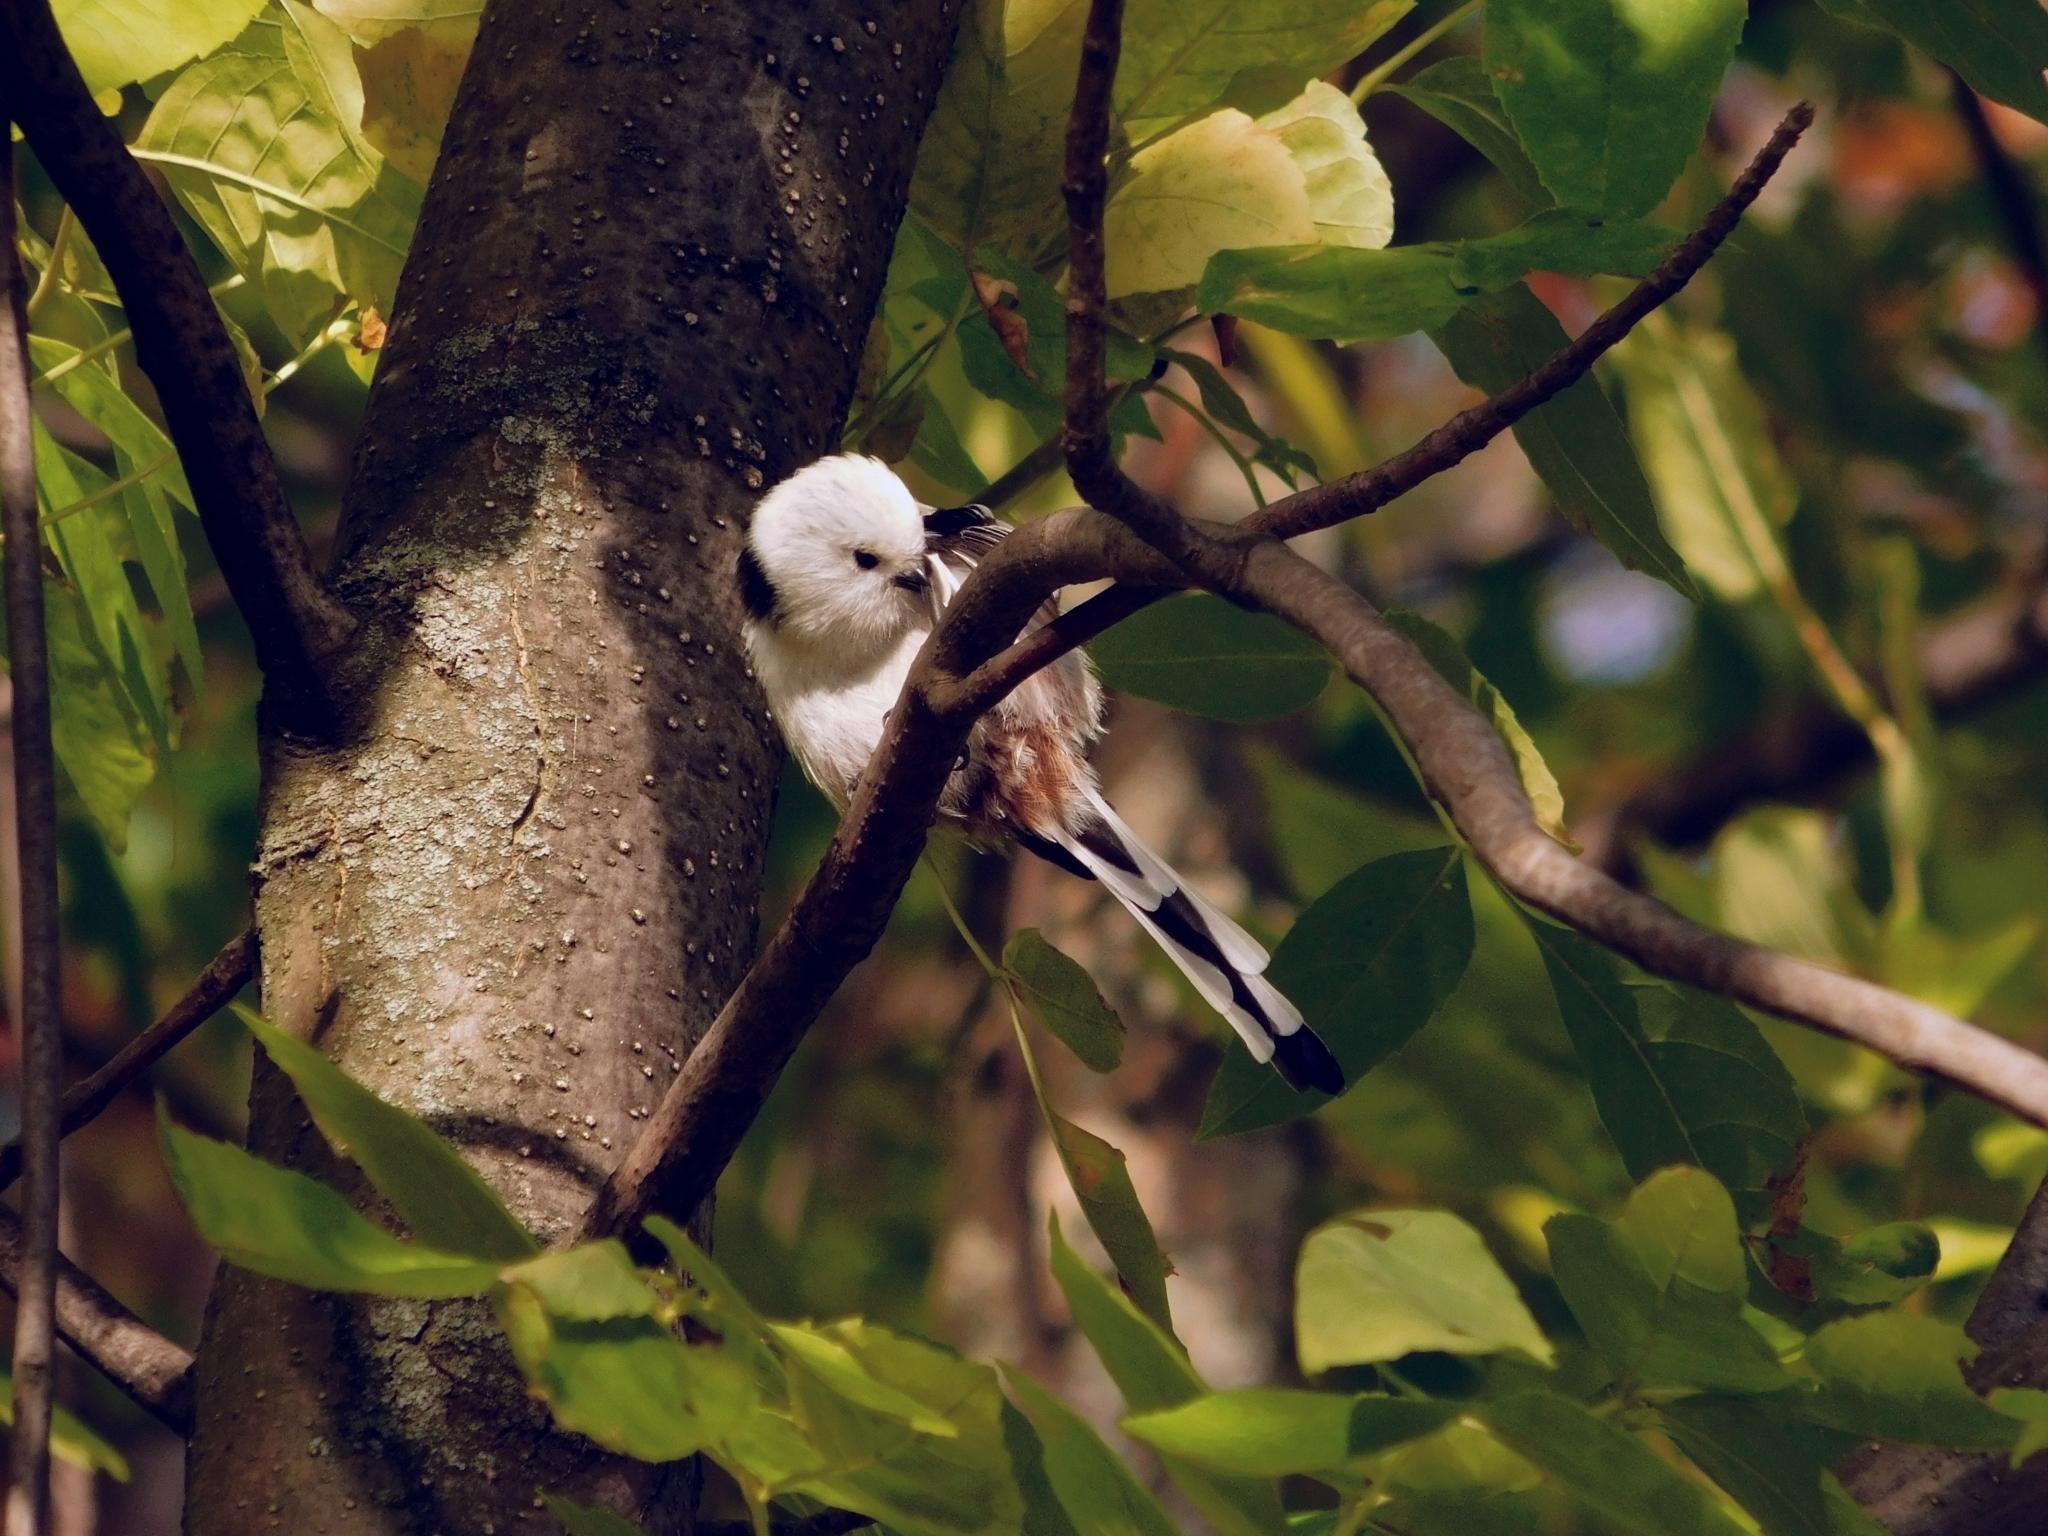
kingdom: Animalia
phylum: Chordata
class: Aves
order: Passeriformes
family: Aegithalidae
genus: Aegithalos
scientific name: Aegithalos caudatus
